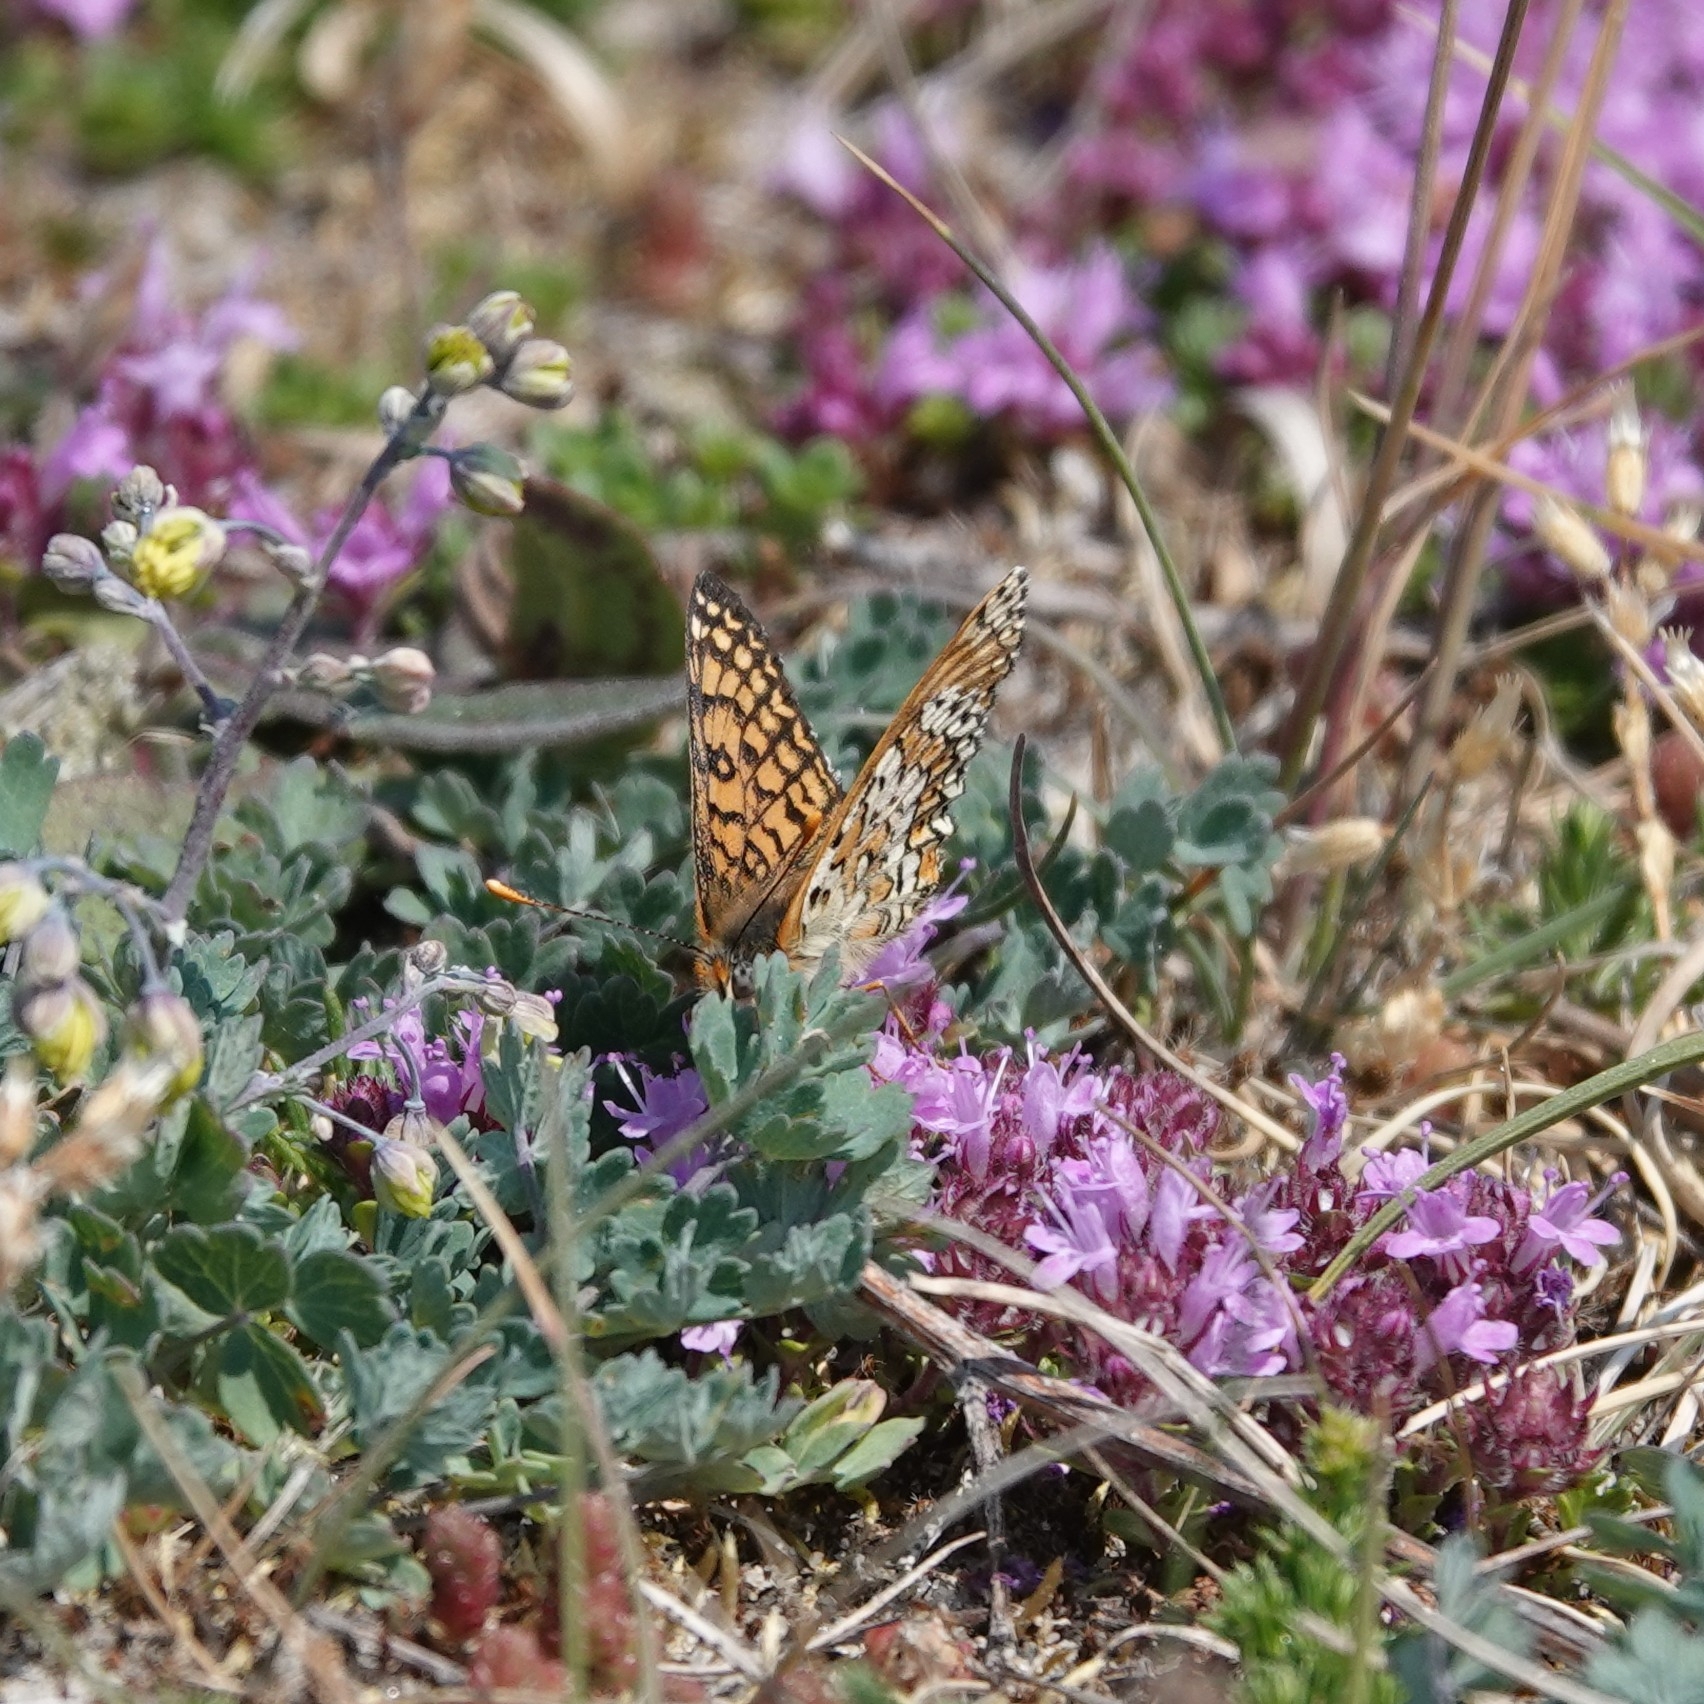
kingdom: Animalia
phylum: Arthropoda
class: Insecta
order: Lepidoptera
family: Nymphalidae
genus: Melitaea
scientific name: Melitaea cinxia
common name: Glanville fritillary
